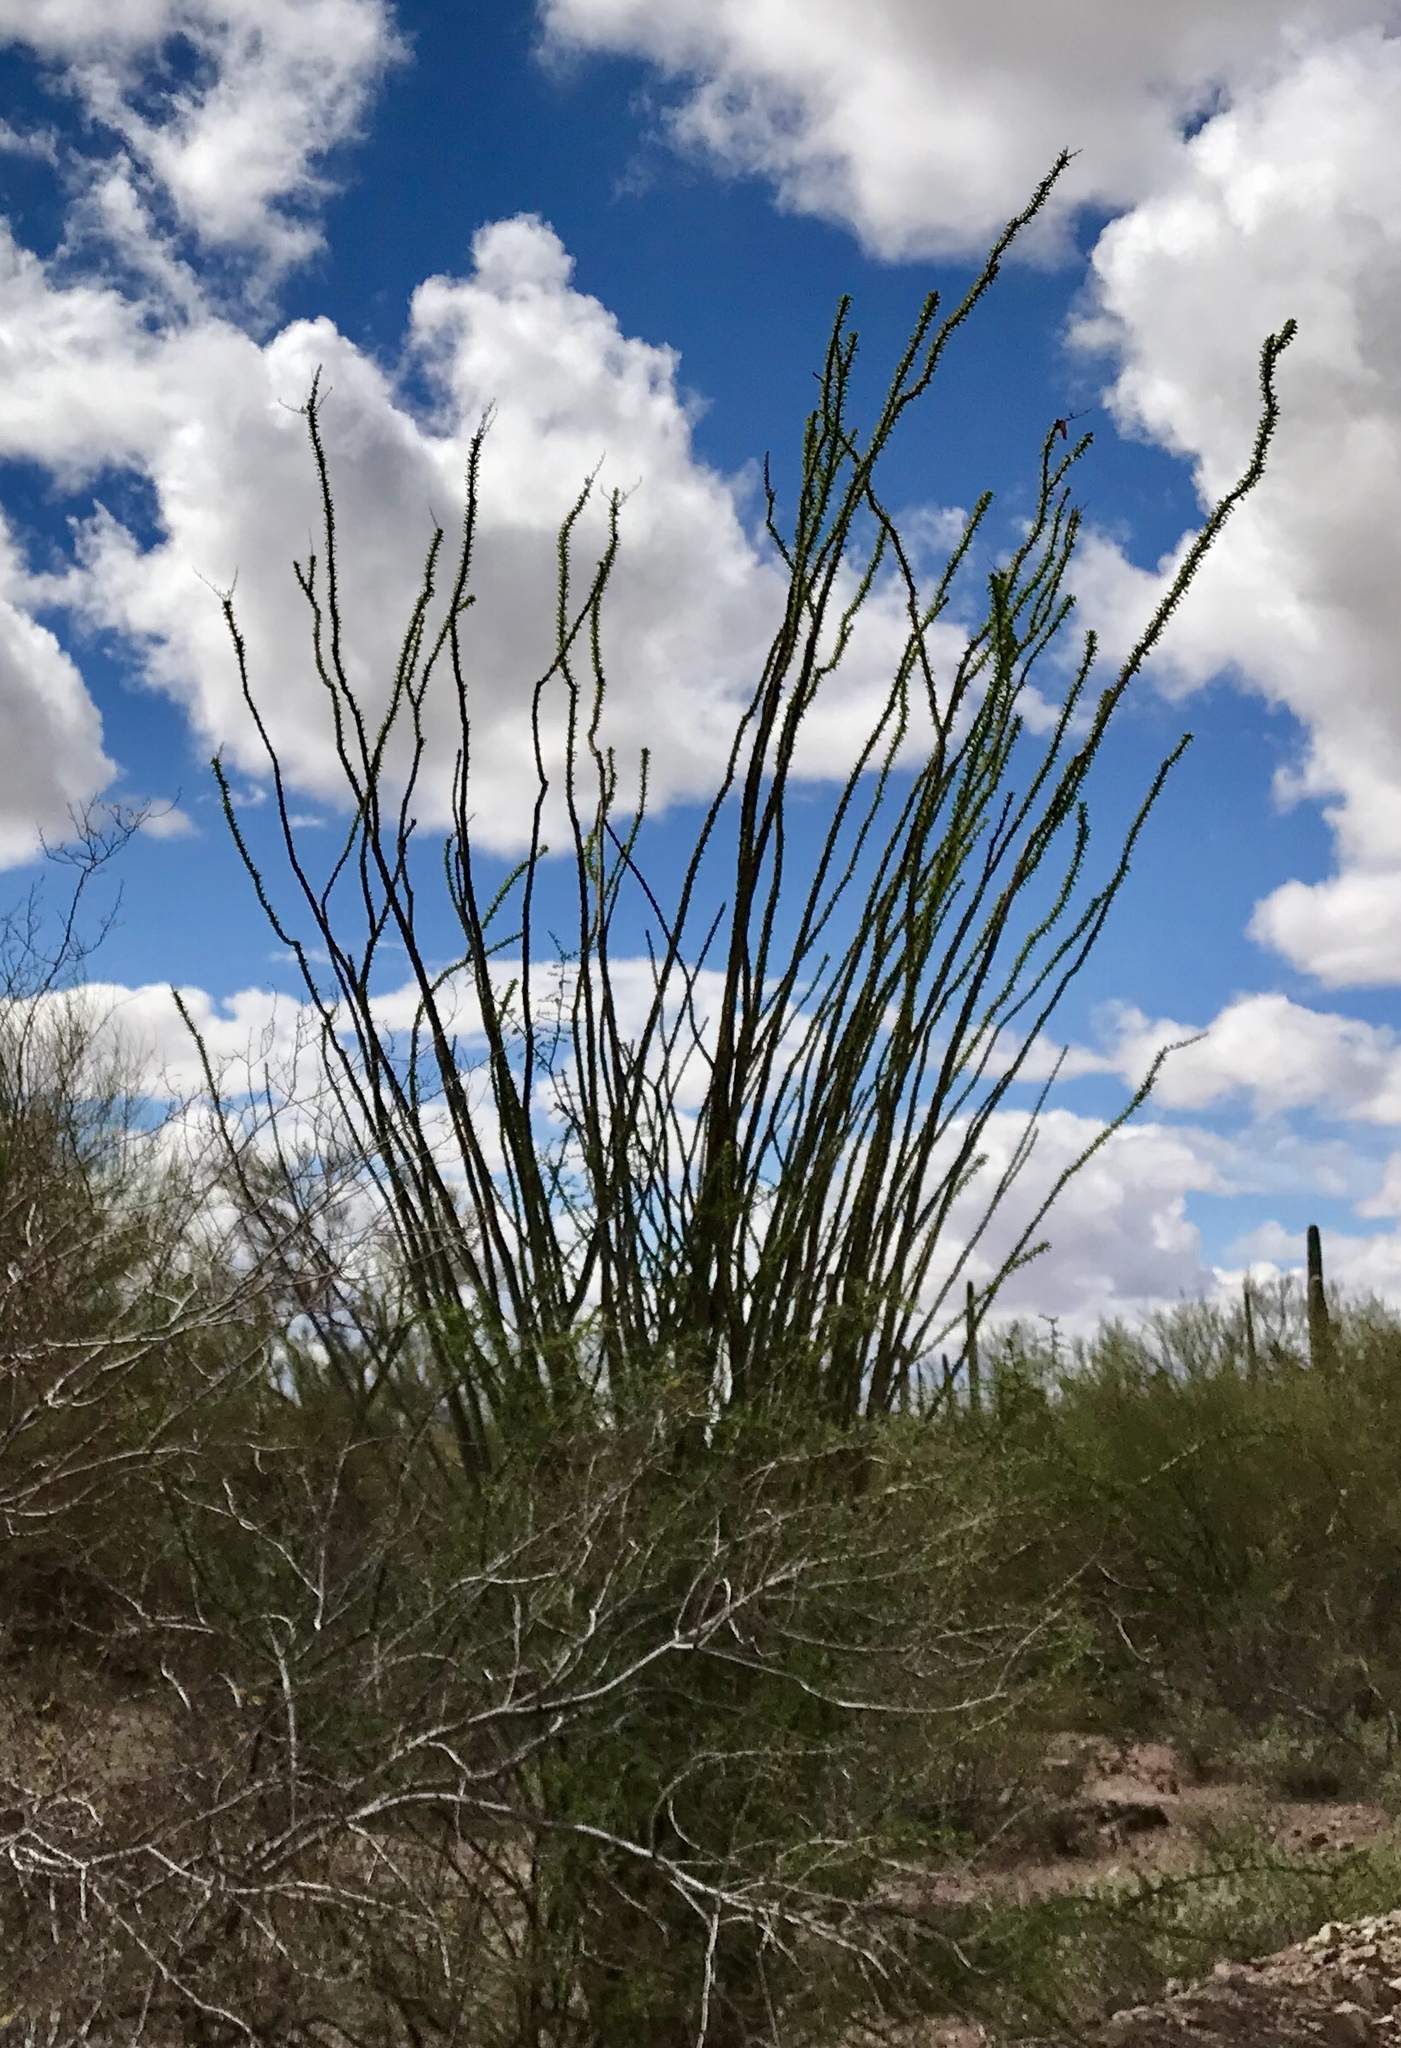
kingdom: Plantae
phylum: Tracheophyta
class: Magnoliopsida
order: Ericales
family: Fouquieriaceae
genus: Fouquieria
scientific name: Fouquieria splendens
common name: Vine-cactus
